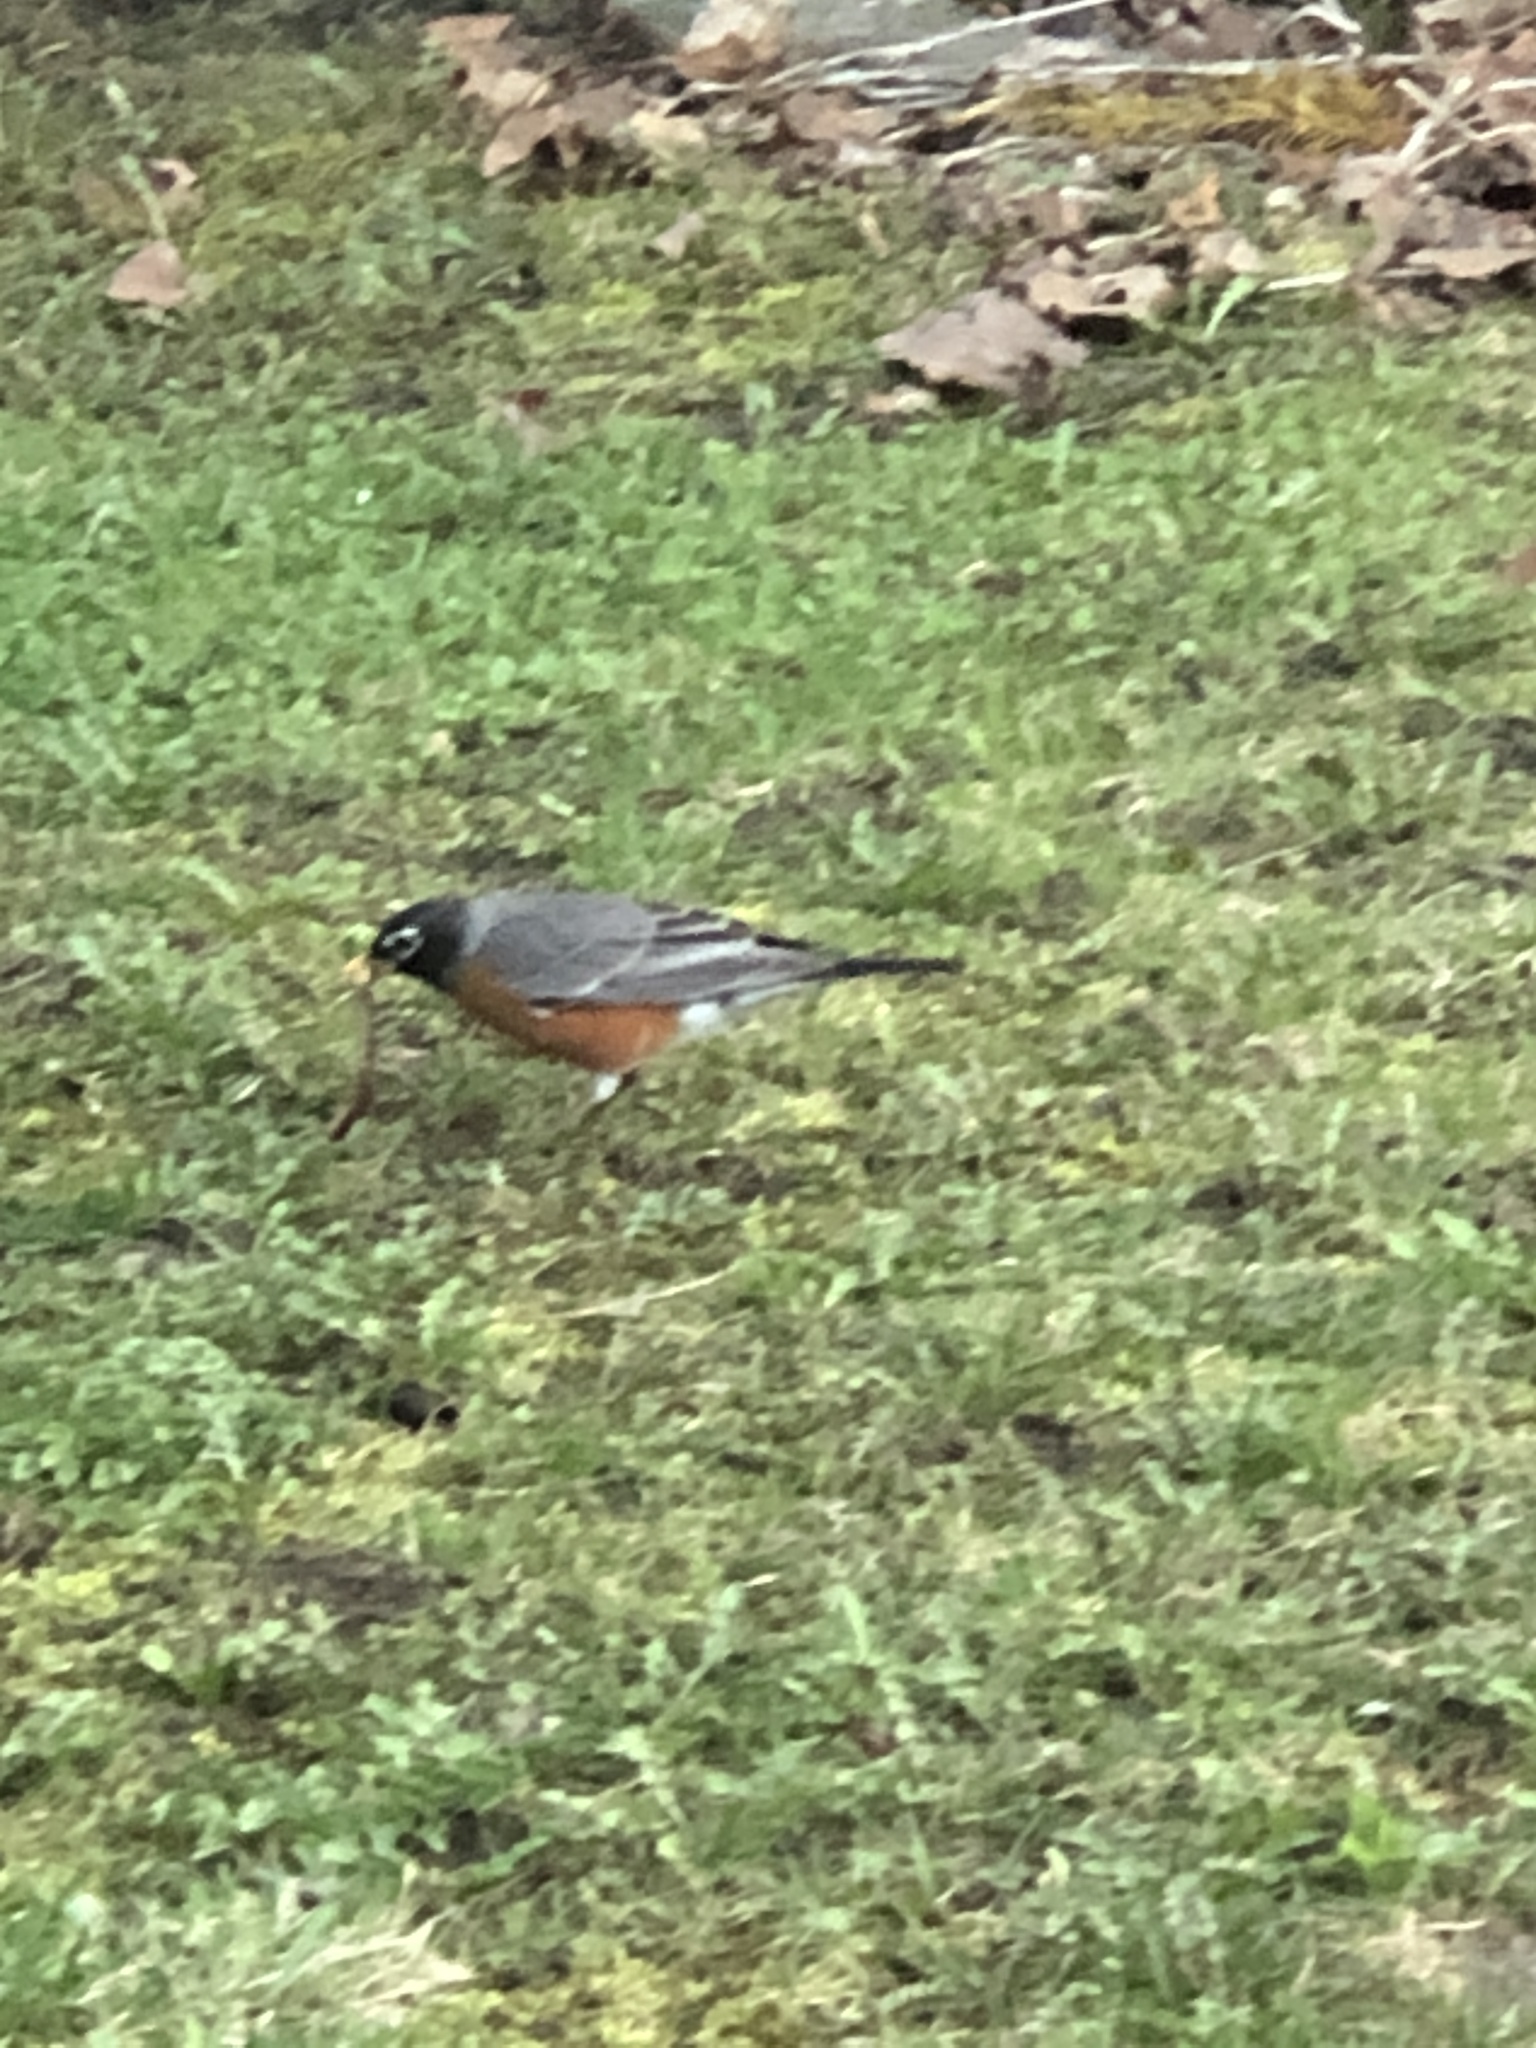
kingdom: Animalia
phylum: Chordata
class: Aves
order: Passeriformes
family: Turdidae
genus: Turdus
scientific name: Turdus migratorius
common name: American robin
